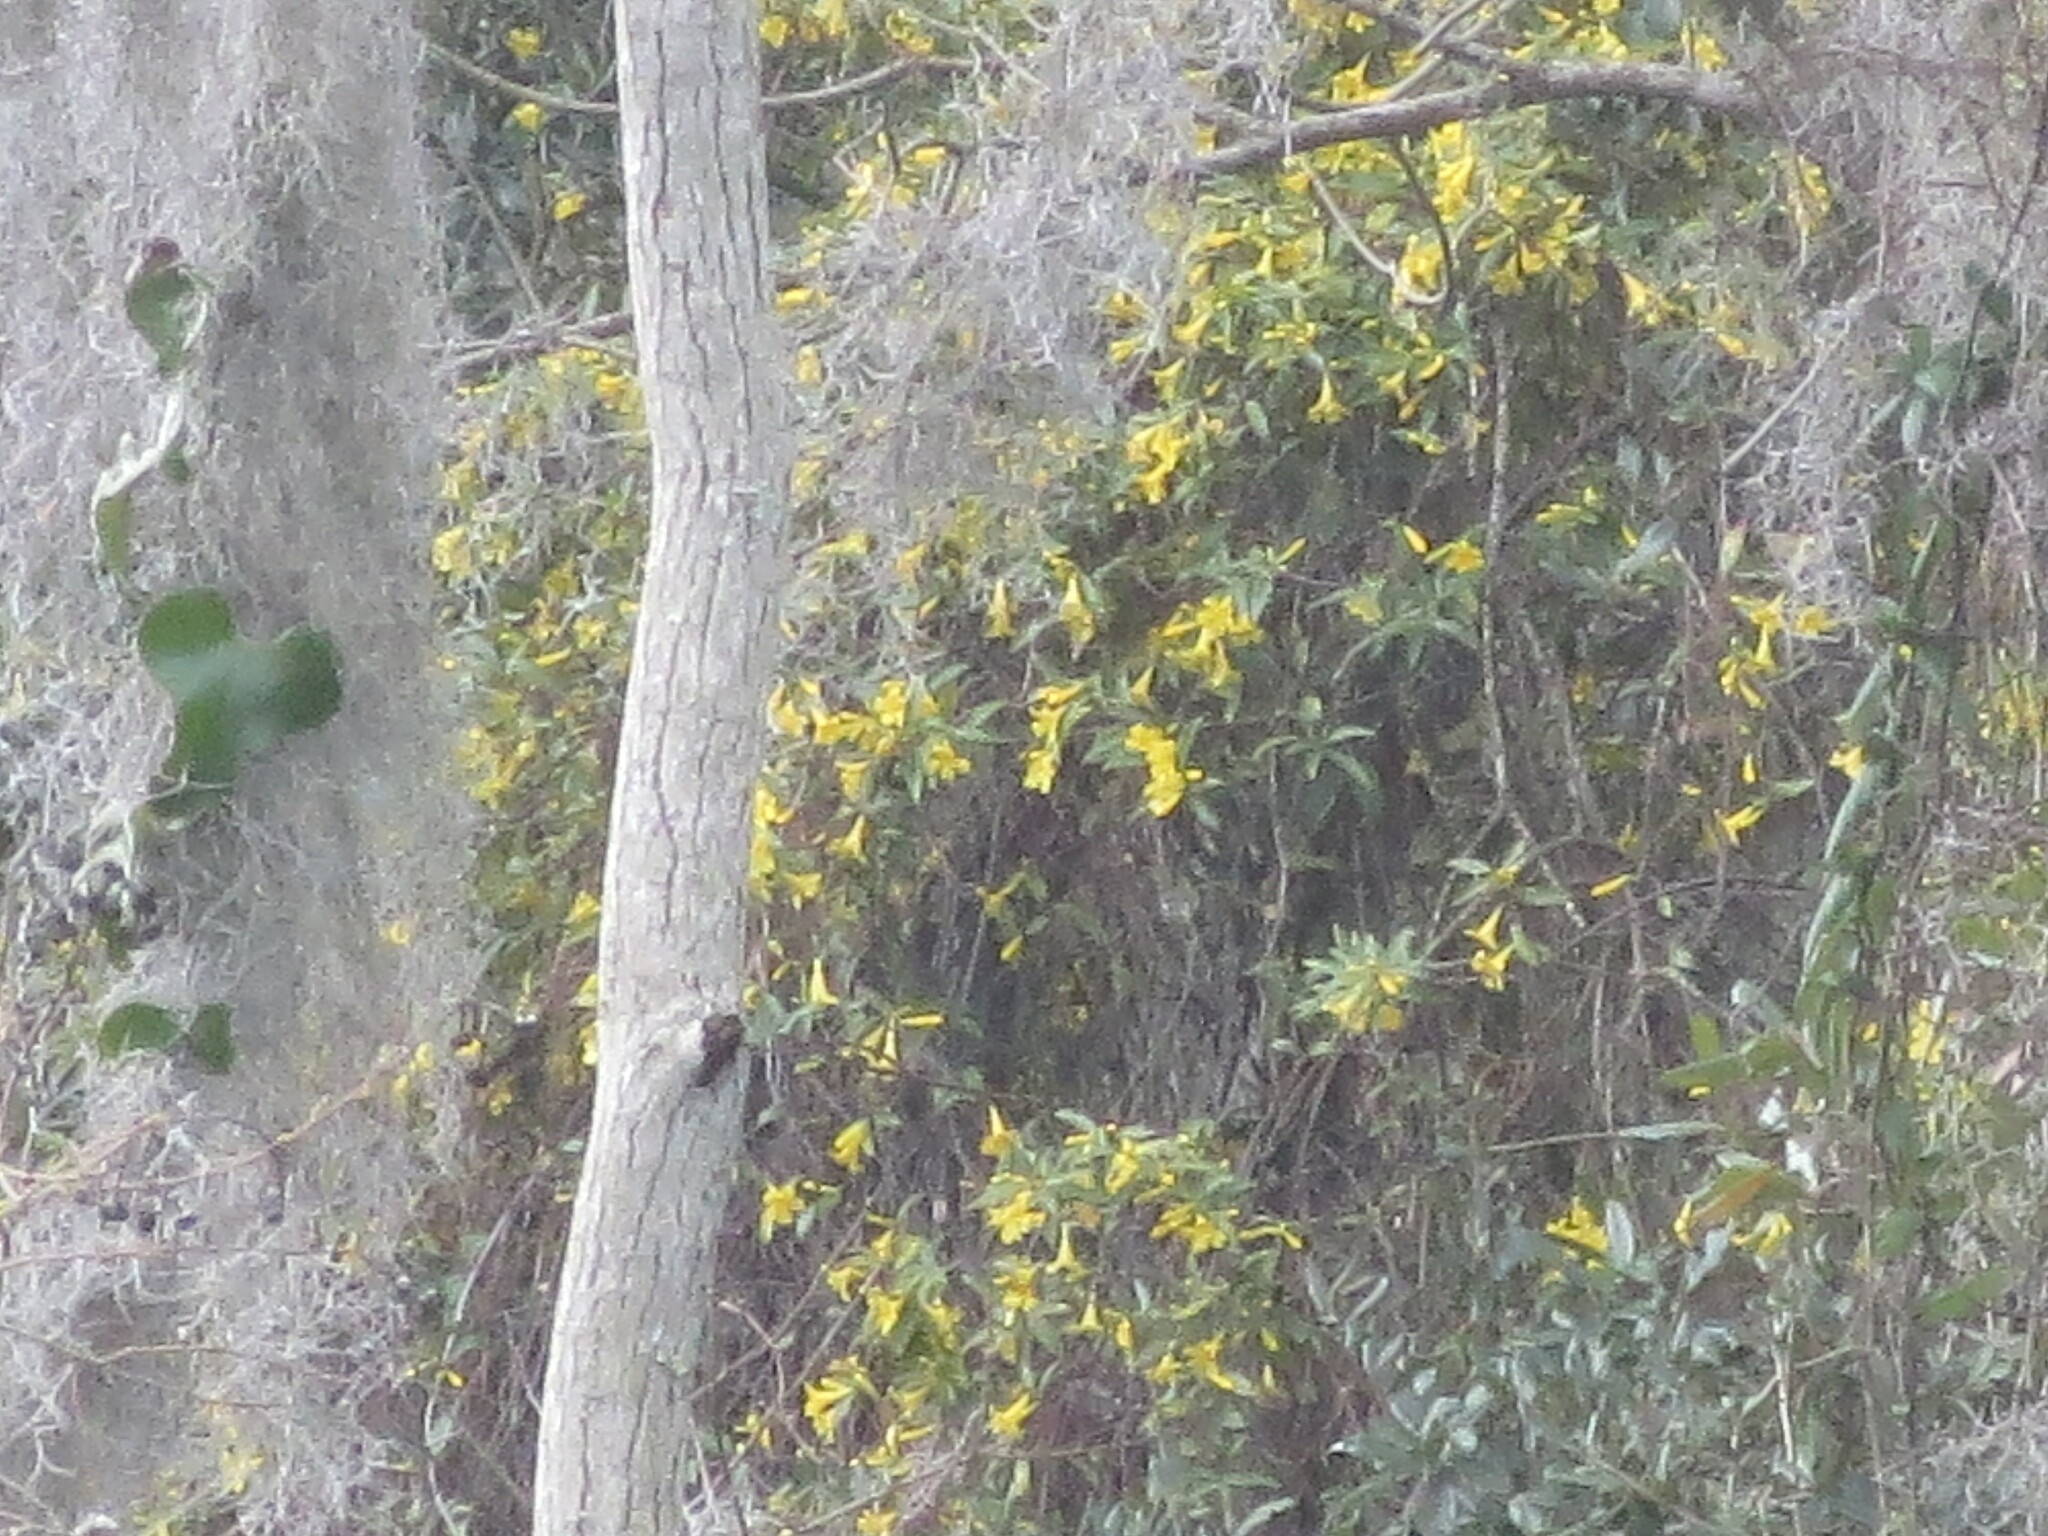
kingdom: Plantae
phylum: Tracheophyta
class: Magnoliopsida
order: Gentianales
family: Gelsemiaceae
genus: Gelsemium
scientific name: Gelsemium sempervirens
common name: Carolina-jasmine
